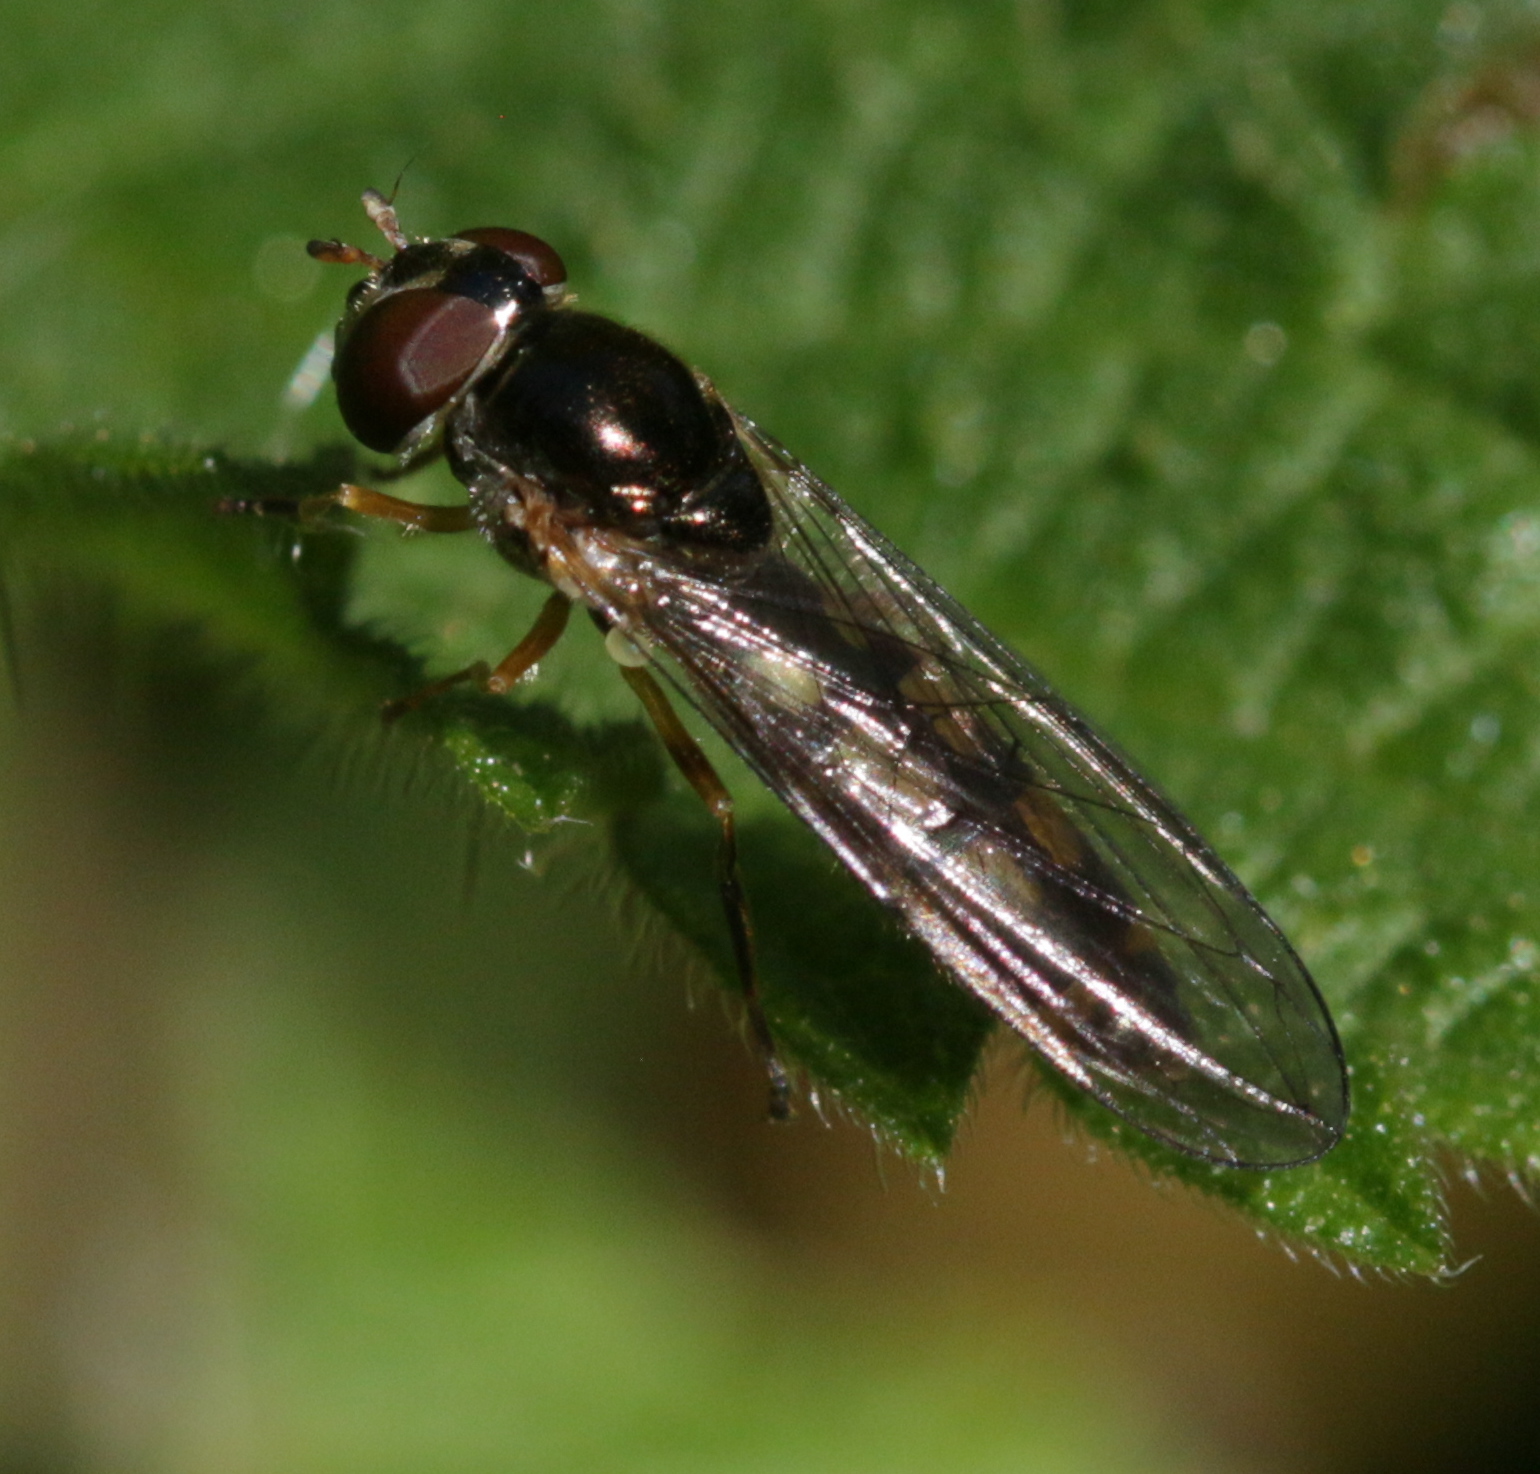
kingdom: Animalia
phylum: Arthropoda
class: Insecta
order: Diptera
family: Syrphidae
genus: Melanostoma
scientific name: Melanostoma scalare
